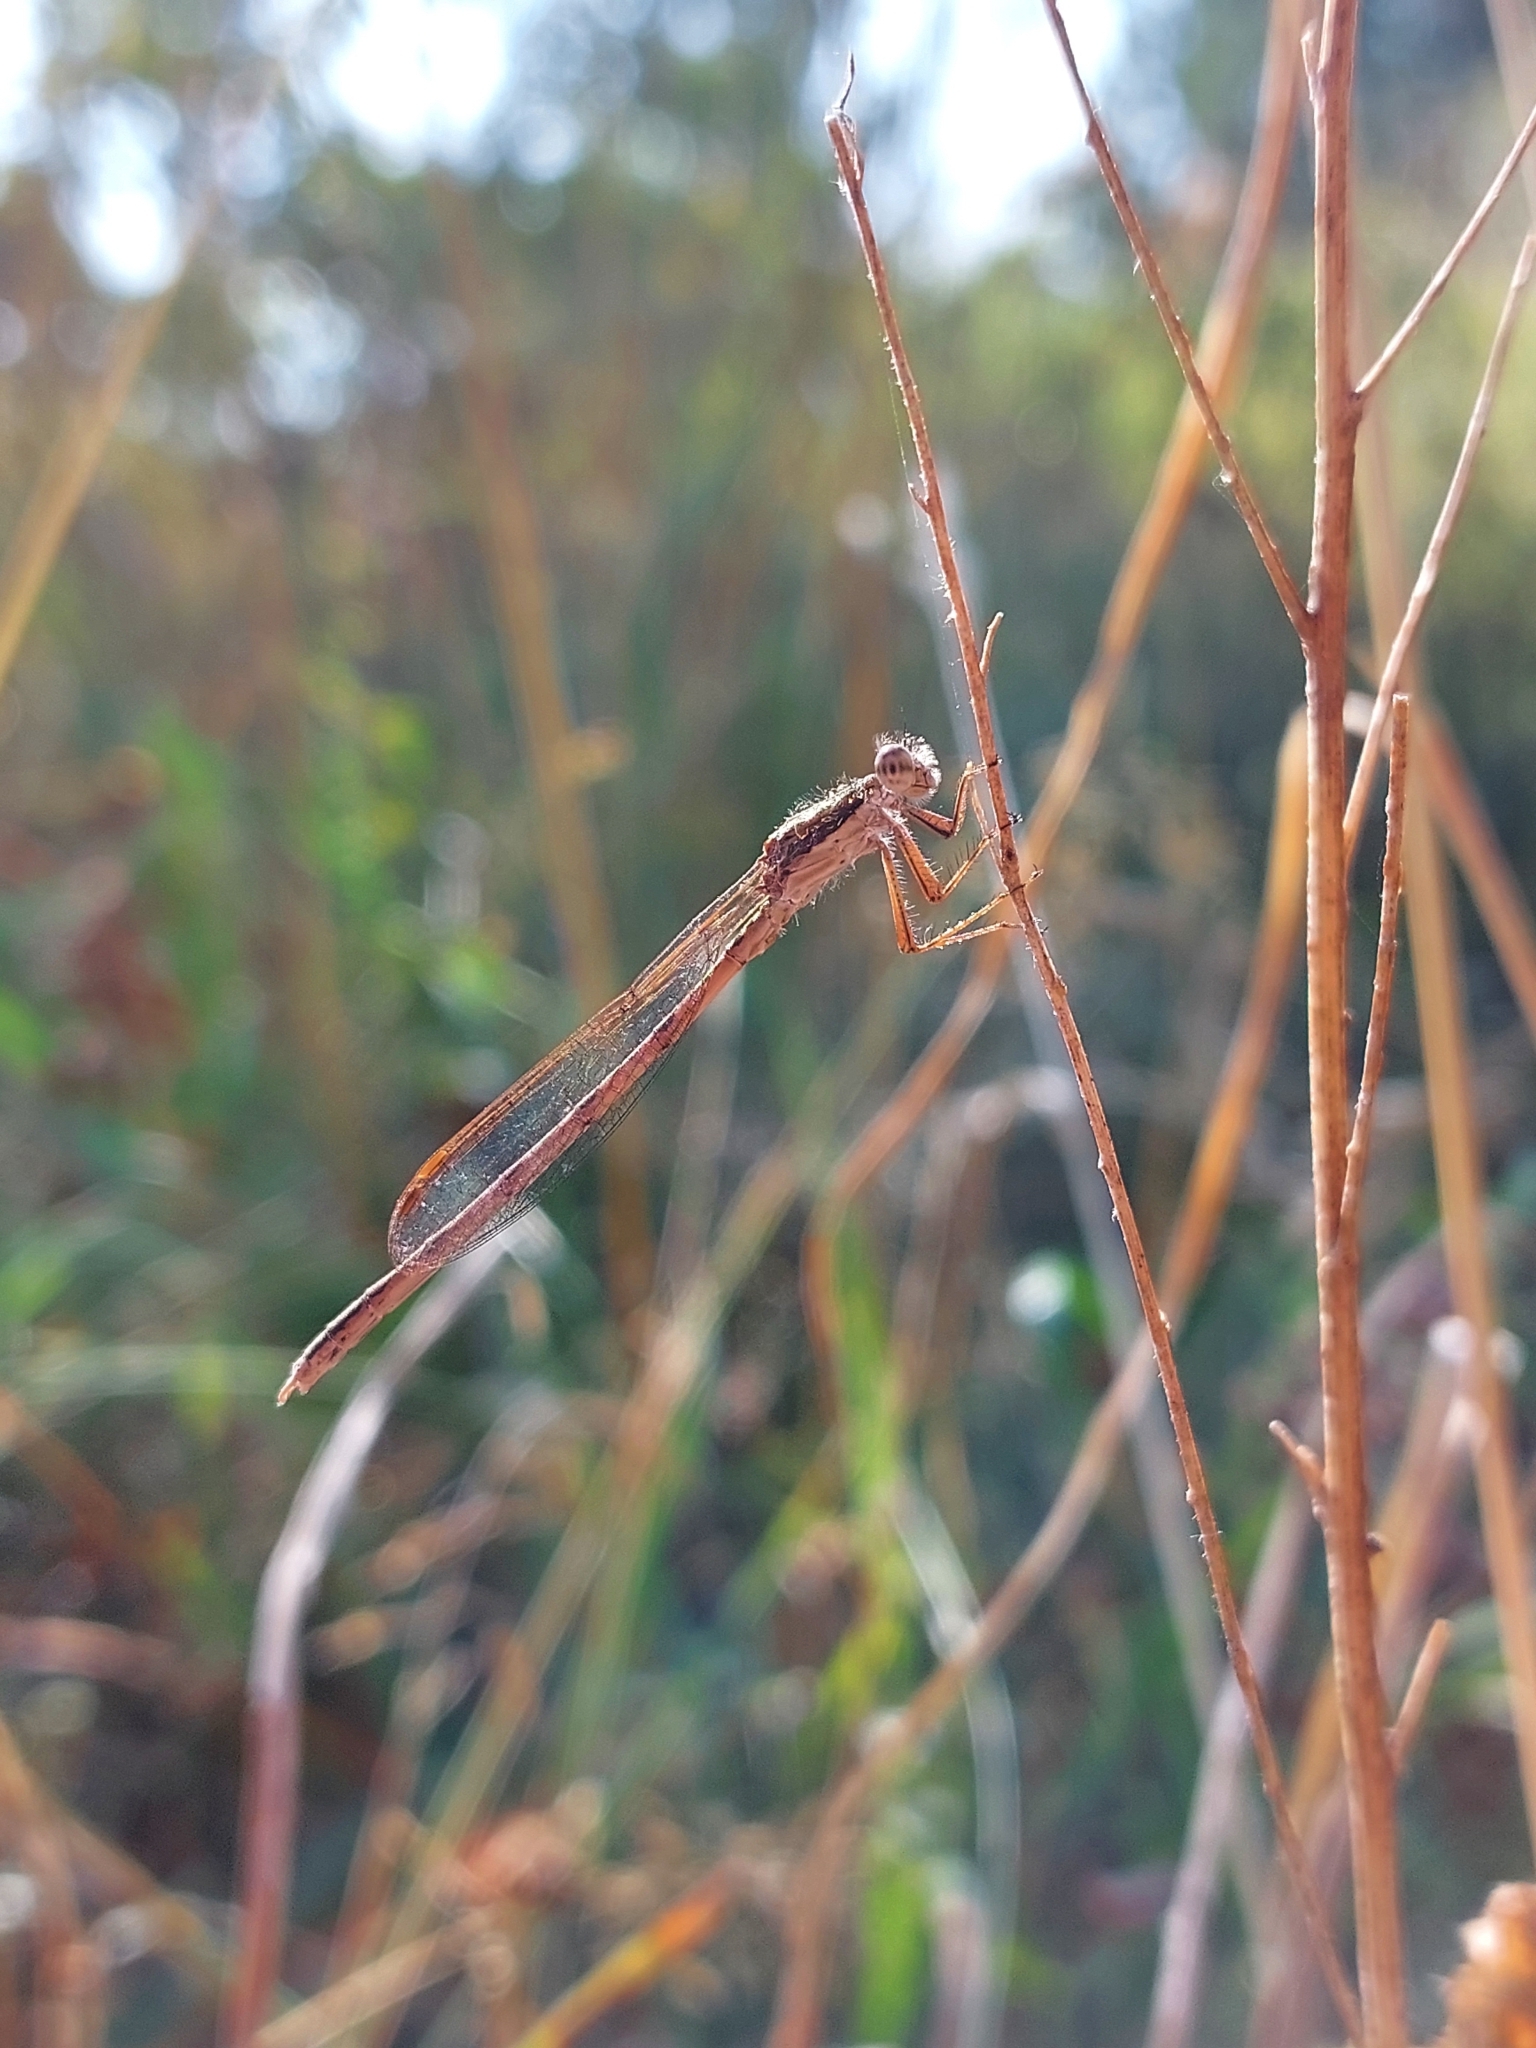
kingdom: Animalia
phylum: Arthropoda
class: Insecta
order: Odonata
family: Lestidae
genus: Sympecma
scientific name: Sympecma fusca
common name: Common winter damsel
